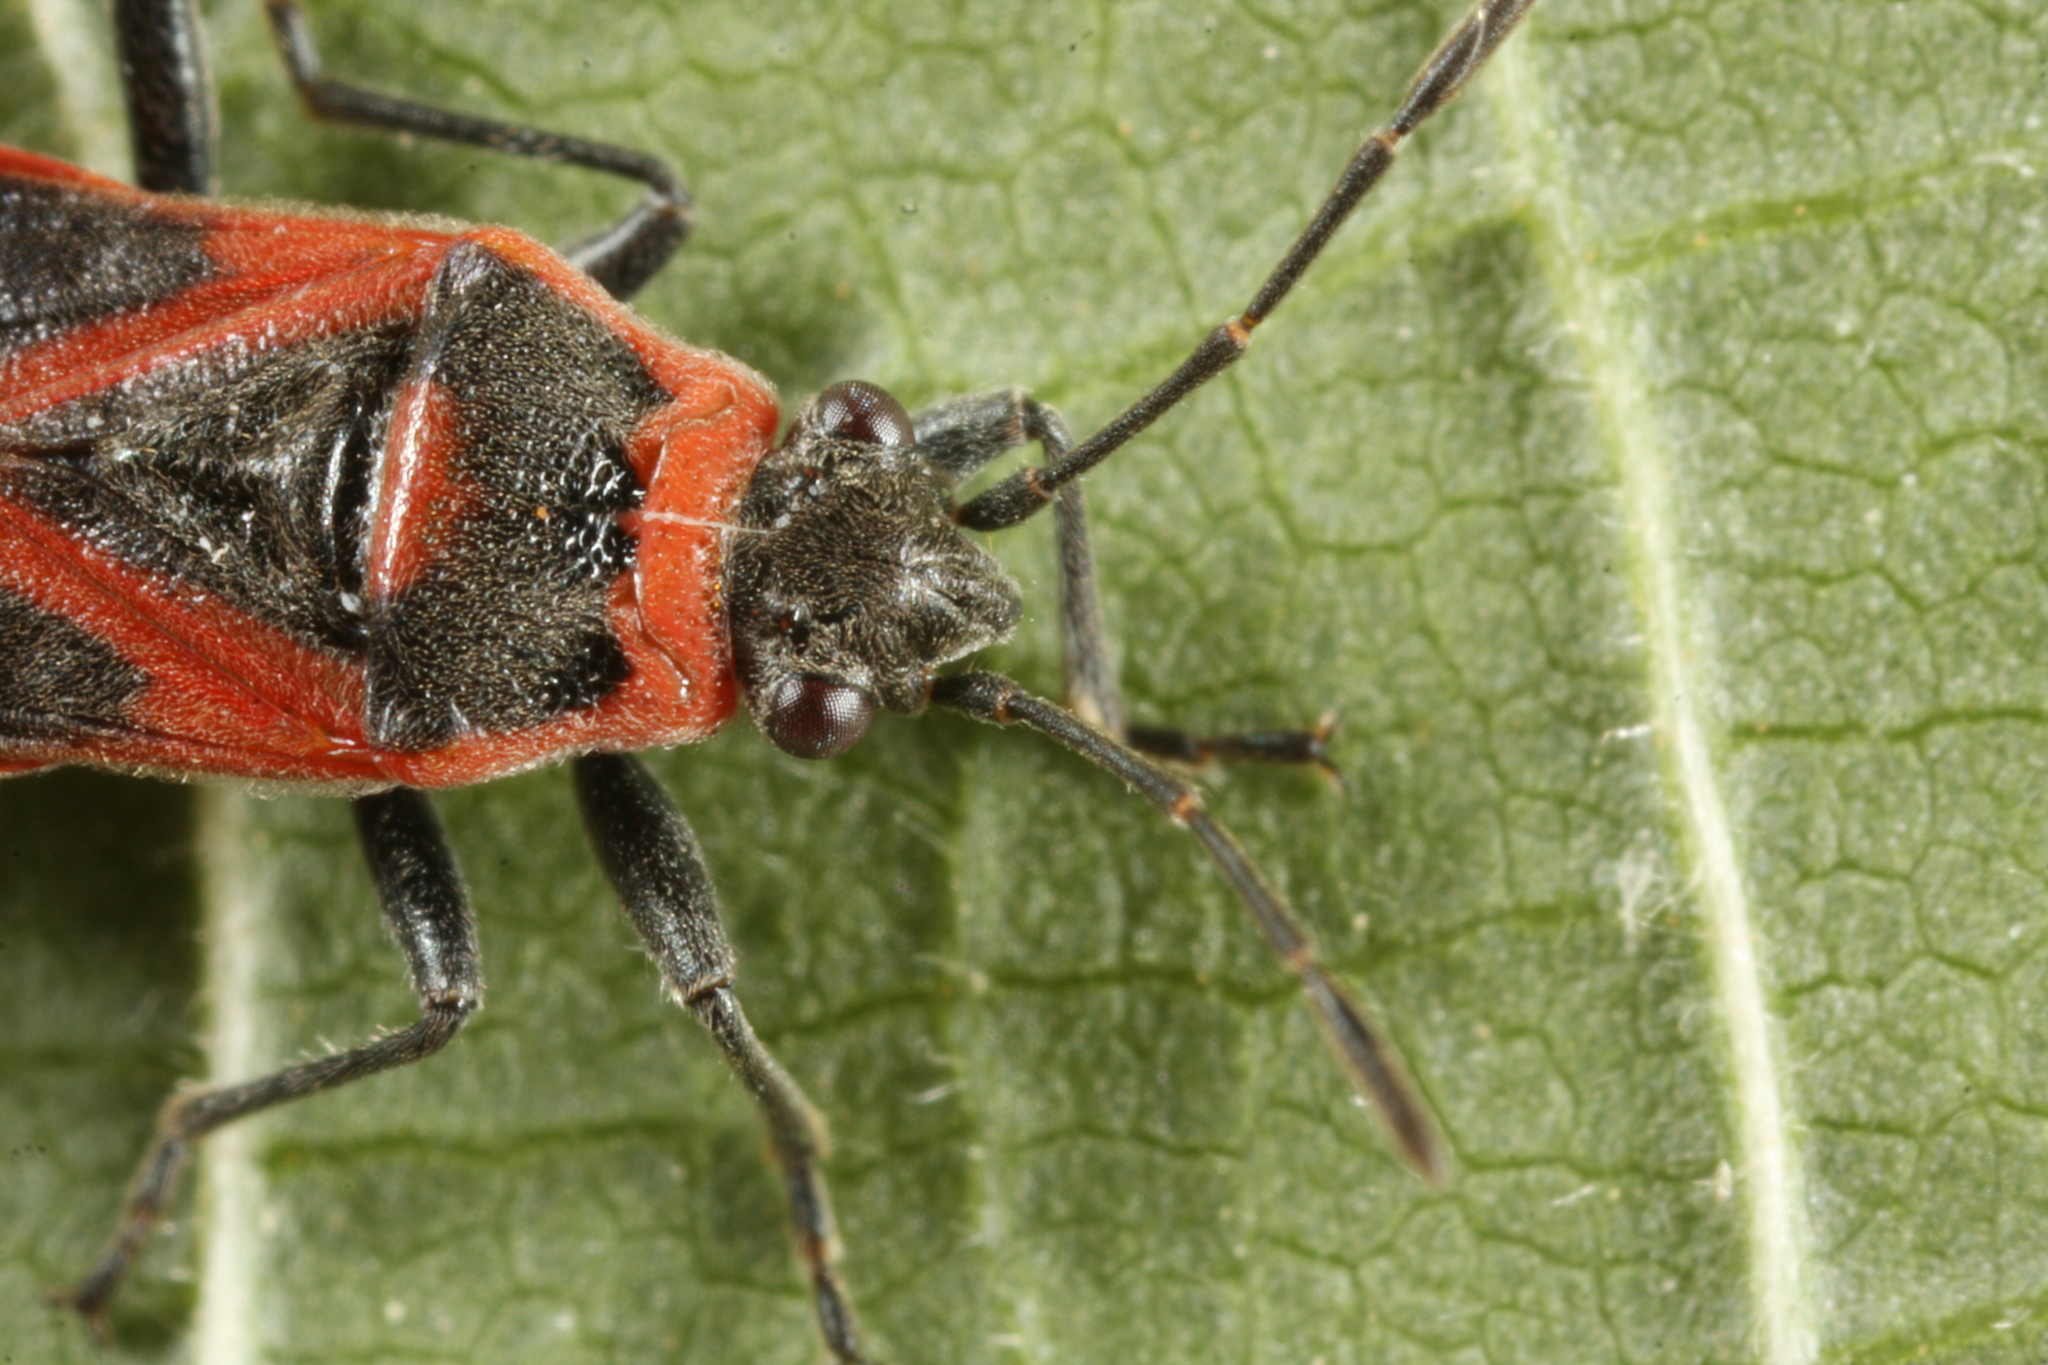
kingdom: Animalia
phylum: Arthropoda
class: Insecta
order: Hemiptera
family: Lygaeidae
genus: Arocatus
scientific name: Arocatus roeselii
